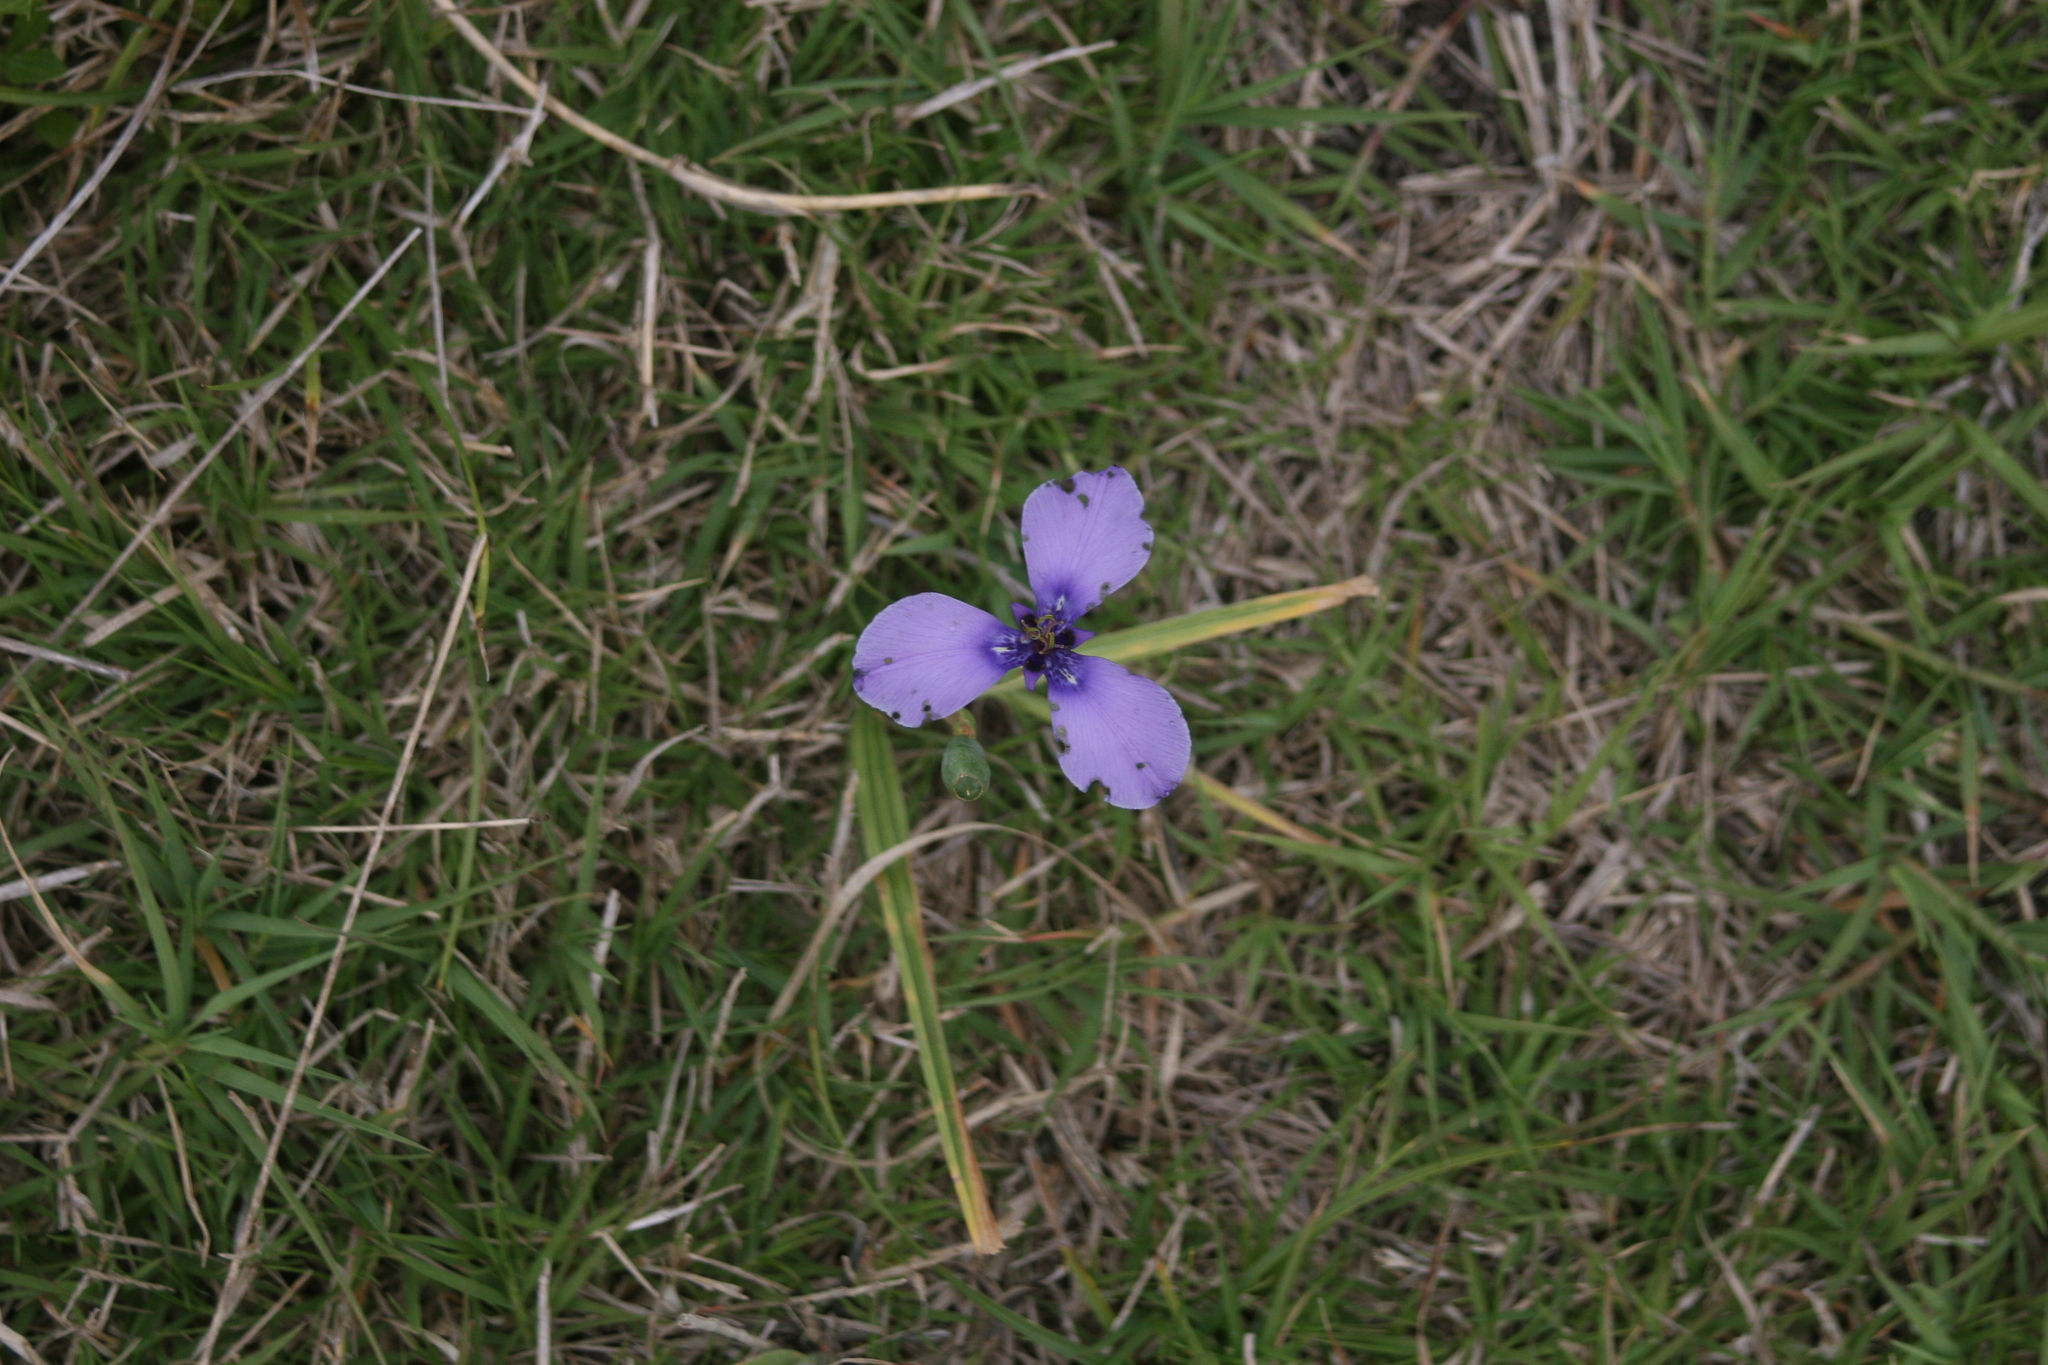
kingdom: Plantae
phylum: Tracheophyta
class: Liliopsida
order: Asparagales
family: Iridaceae
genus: Herbertia
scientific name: Herbertia lahue
